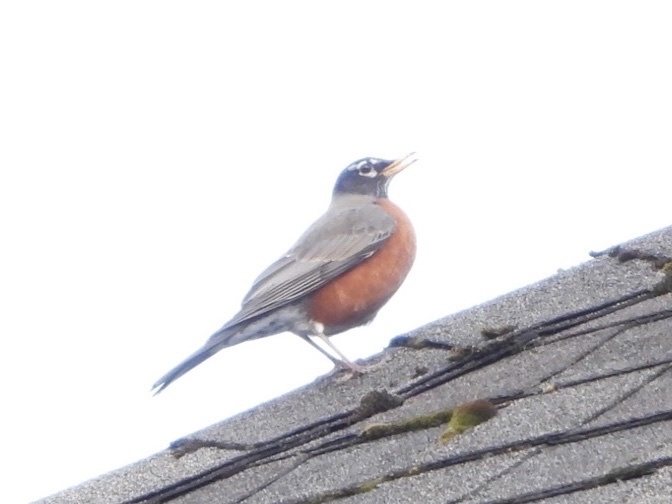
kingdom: Animalia
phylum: Chordata
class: Aves
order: Passeriformes
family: Turdidae
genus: Turdus
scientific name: Turdus migratorius
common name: American robin
